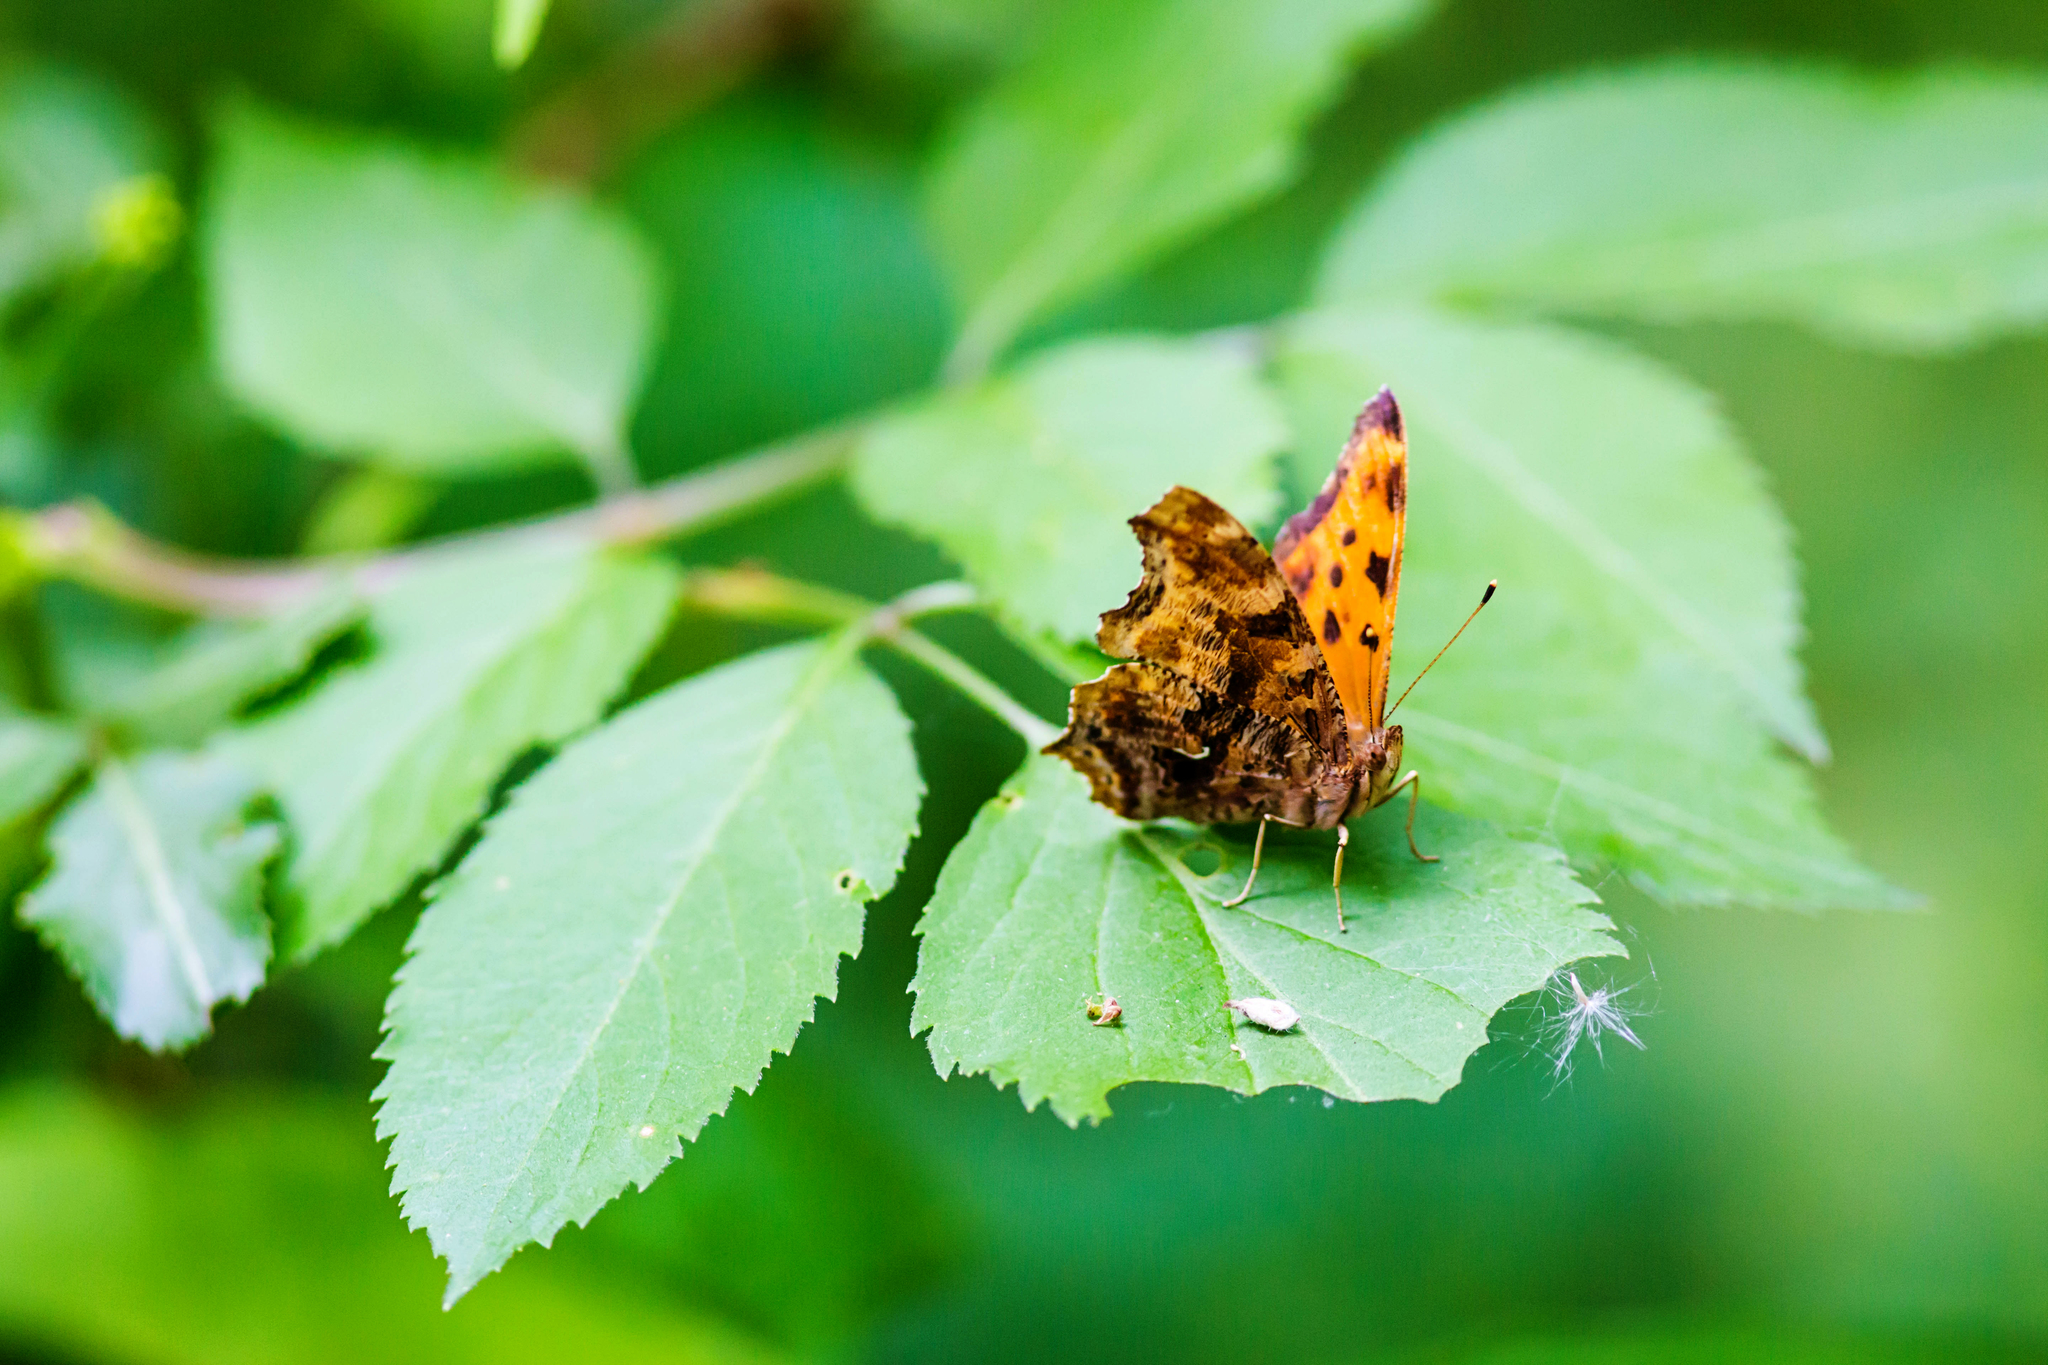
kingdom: Animalia
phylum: Arthropoda
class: Insecta
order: Lepidoptera
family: Nymphalidae
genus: Polygonia
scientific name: Polygonia comma
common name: Eastern comma
